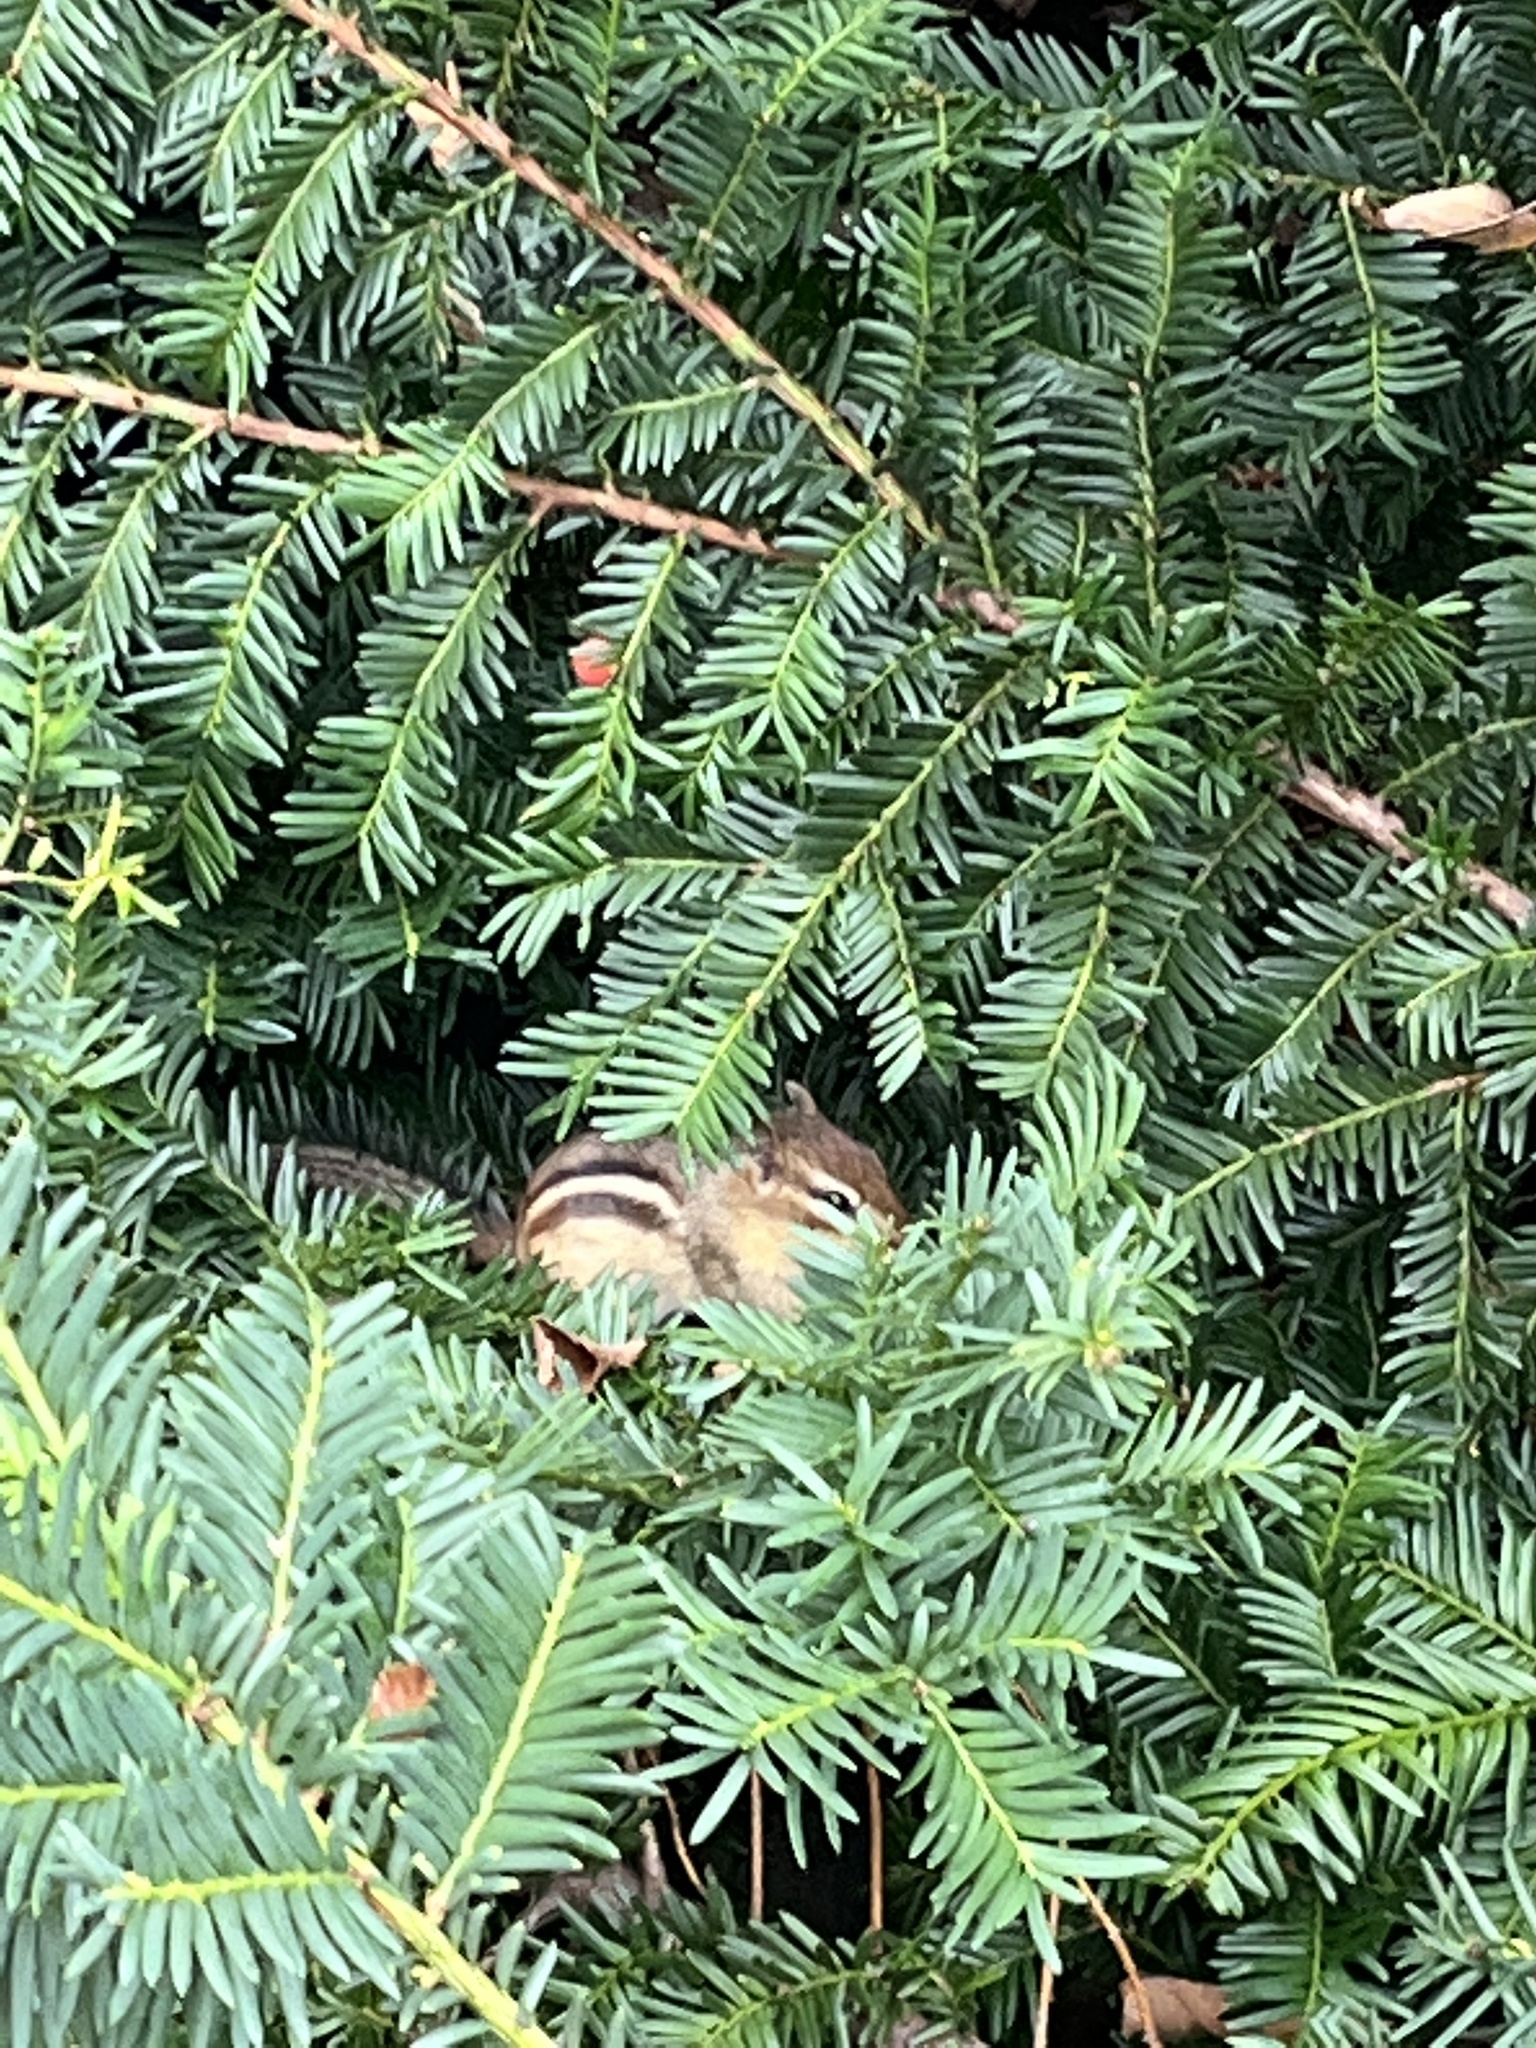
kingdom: Animalia
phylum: Chordata
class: Mammalia
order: Rodentia
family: Sciuridae
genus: Tamias
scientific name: Tamias striatus
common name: Eastern chipmunk
